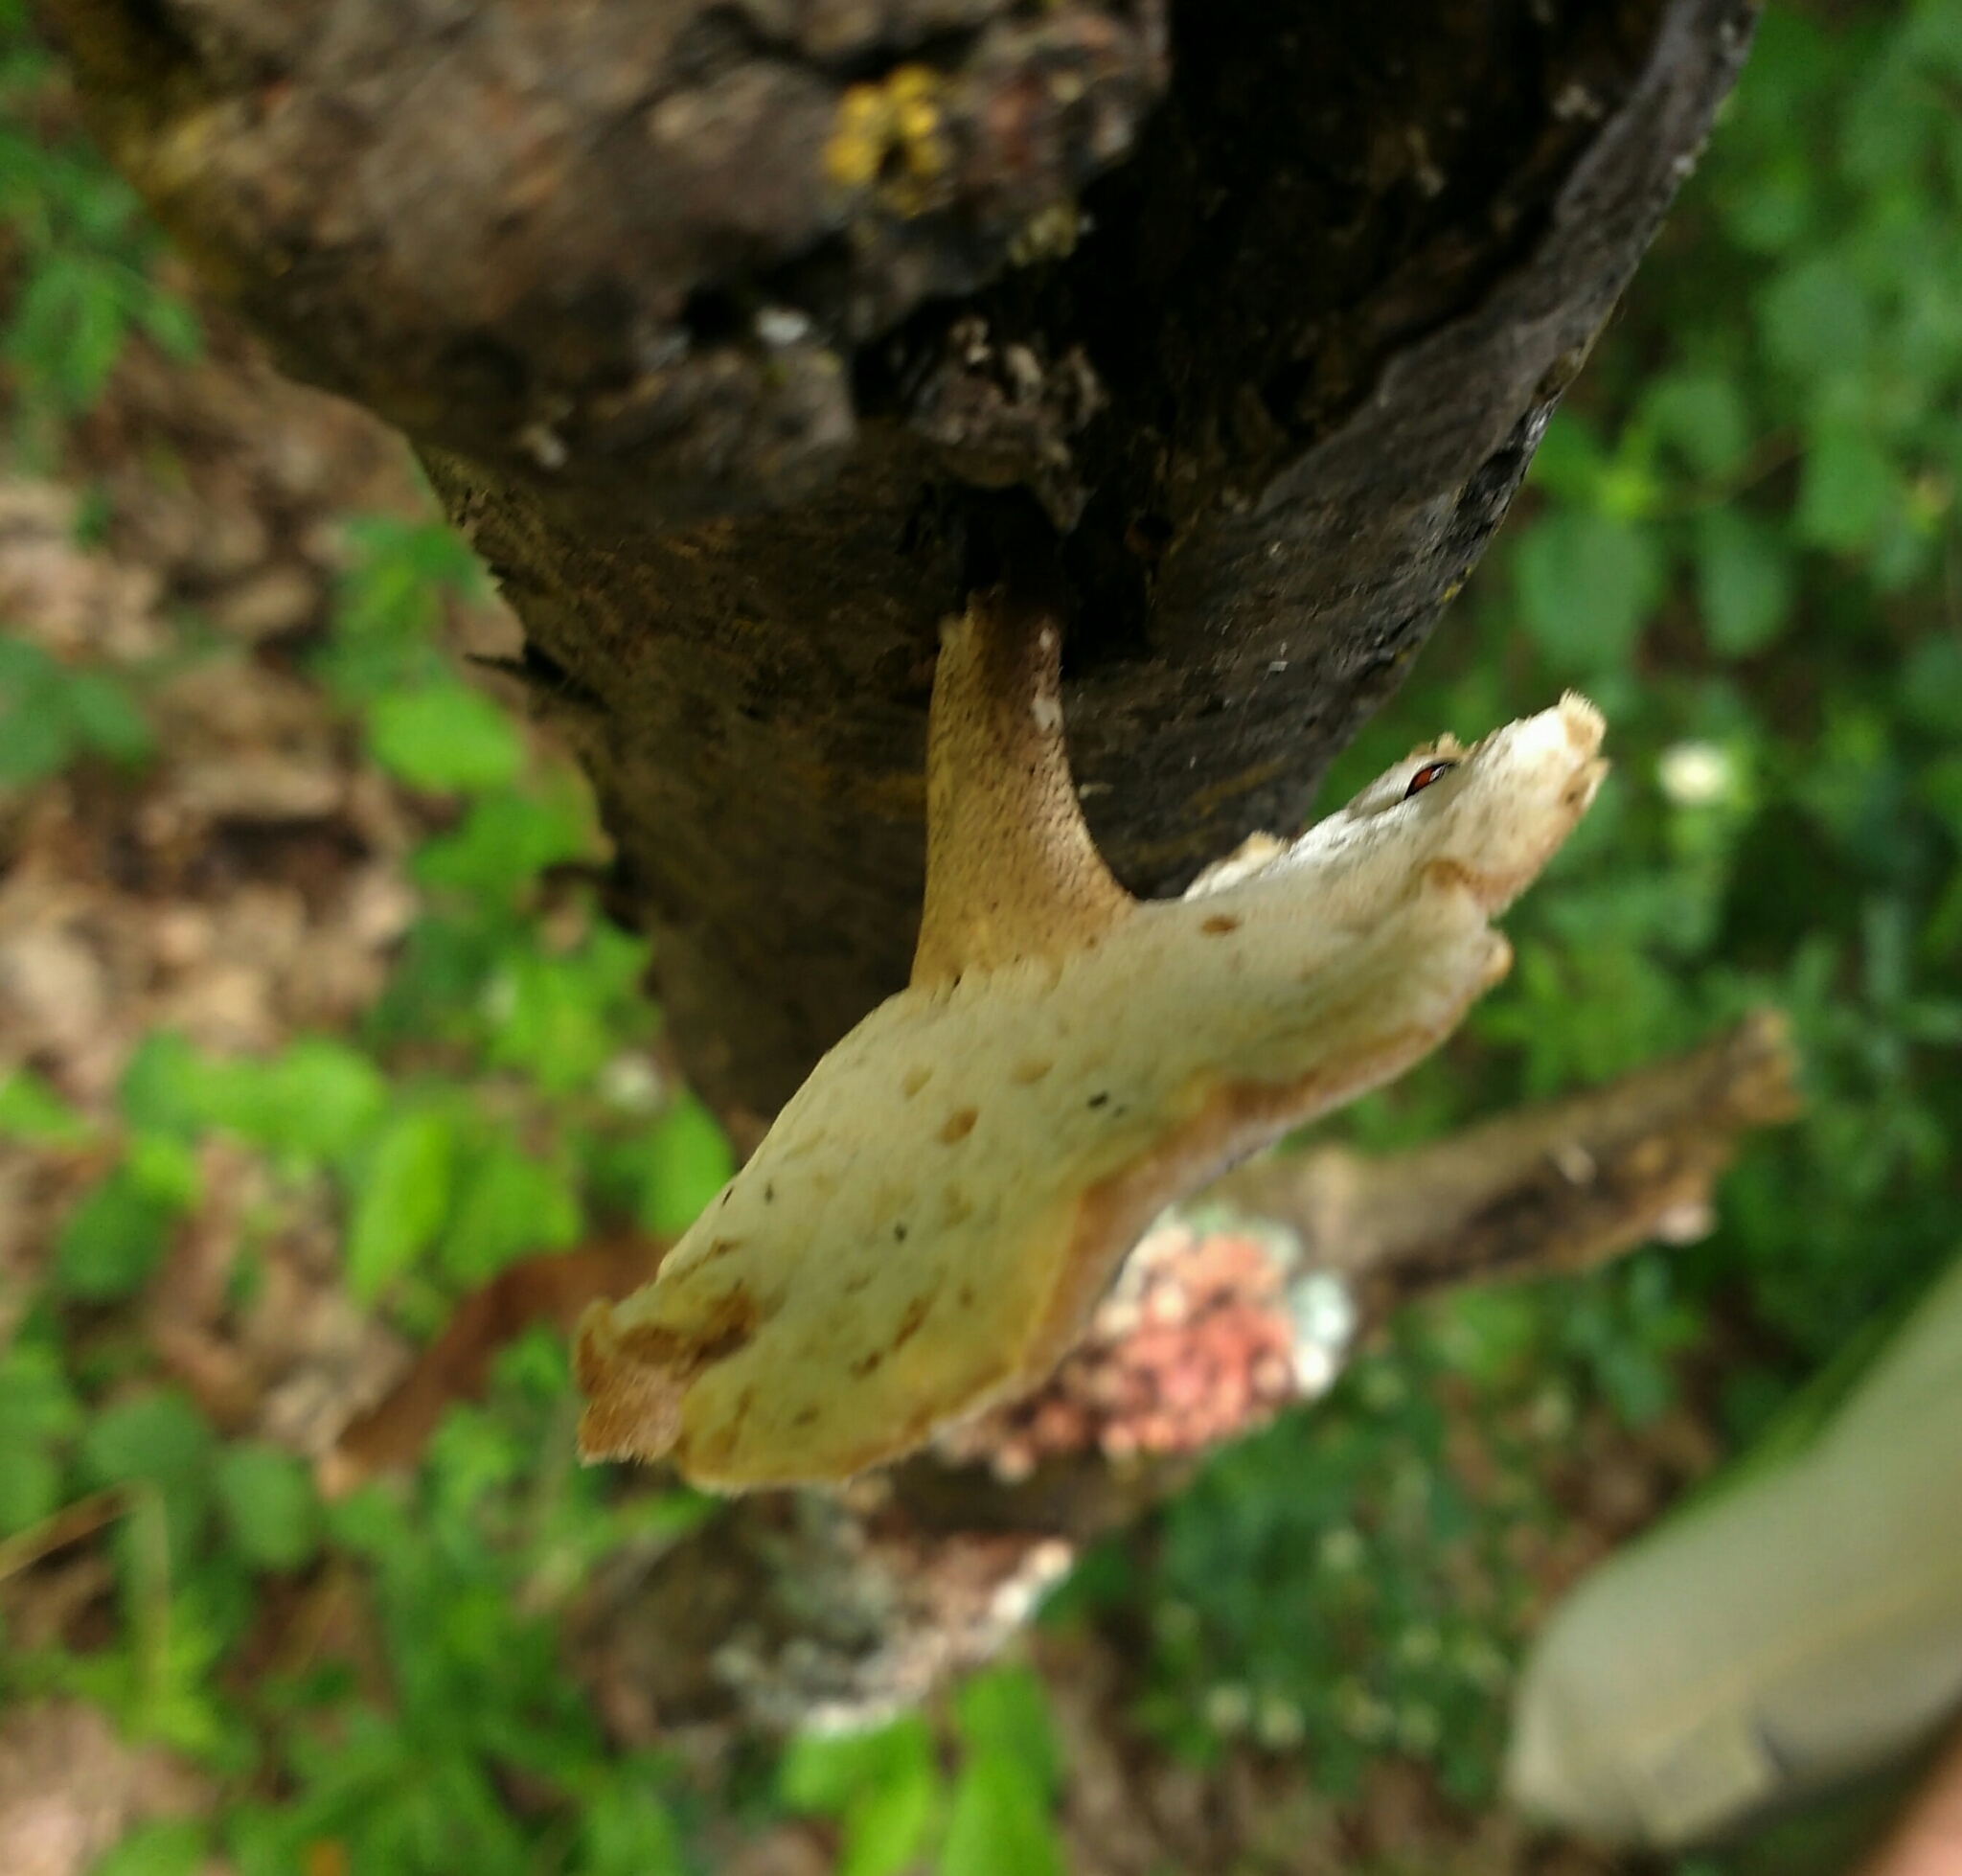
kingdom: Fungi
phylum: Basidiomycota
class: Agaricomycetes
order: Polyporales
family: Polyporaceae
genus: Lentinus
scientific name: Lentinus substrictus
